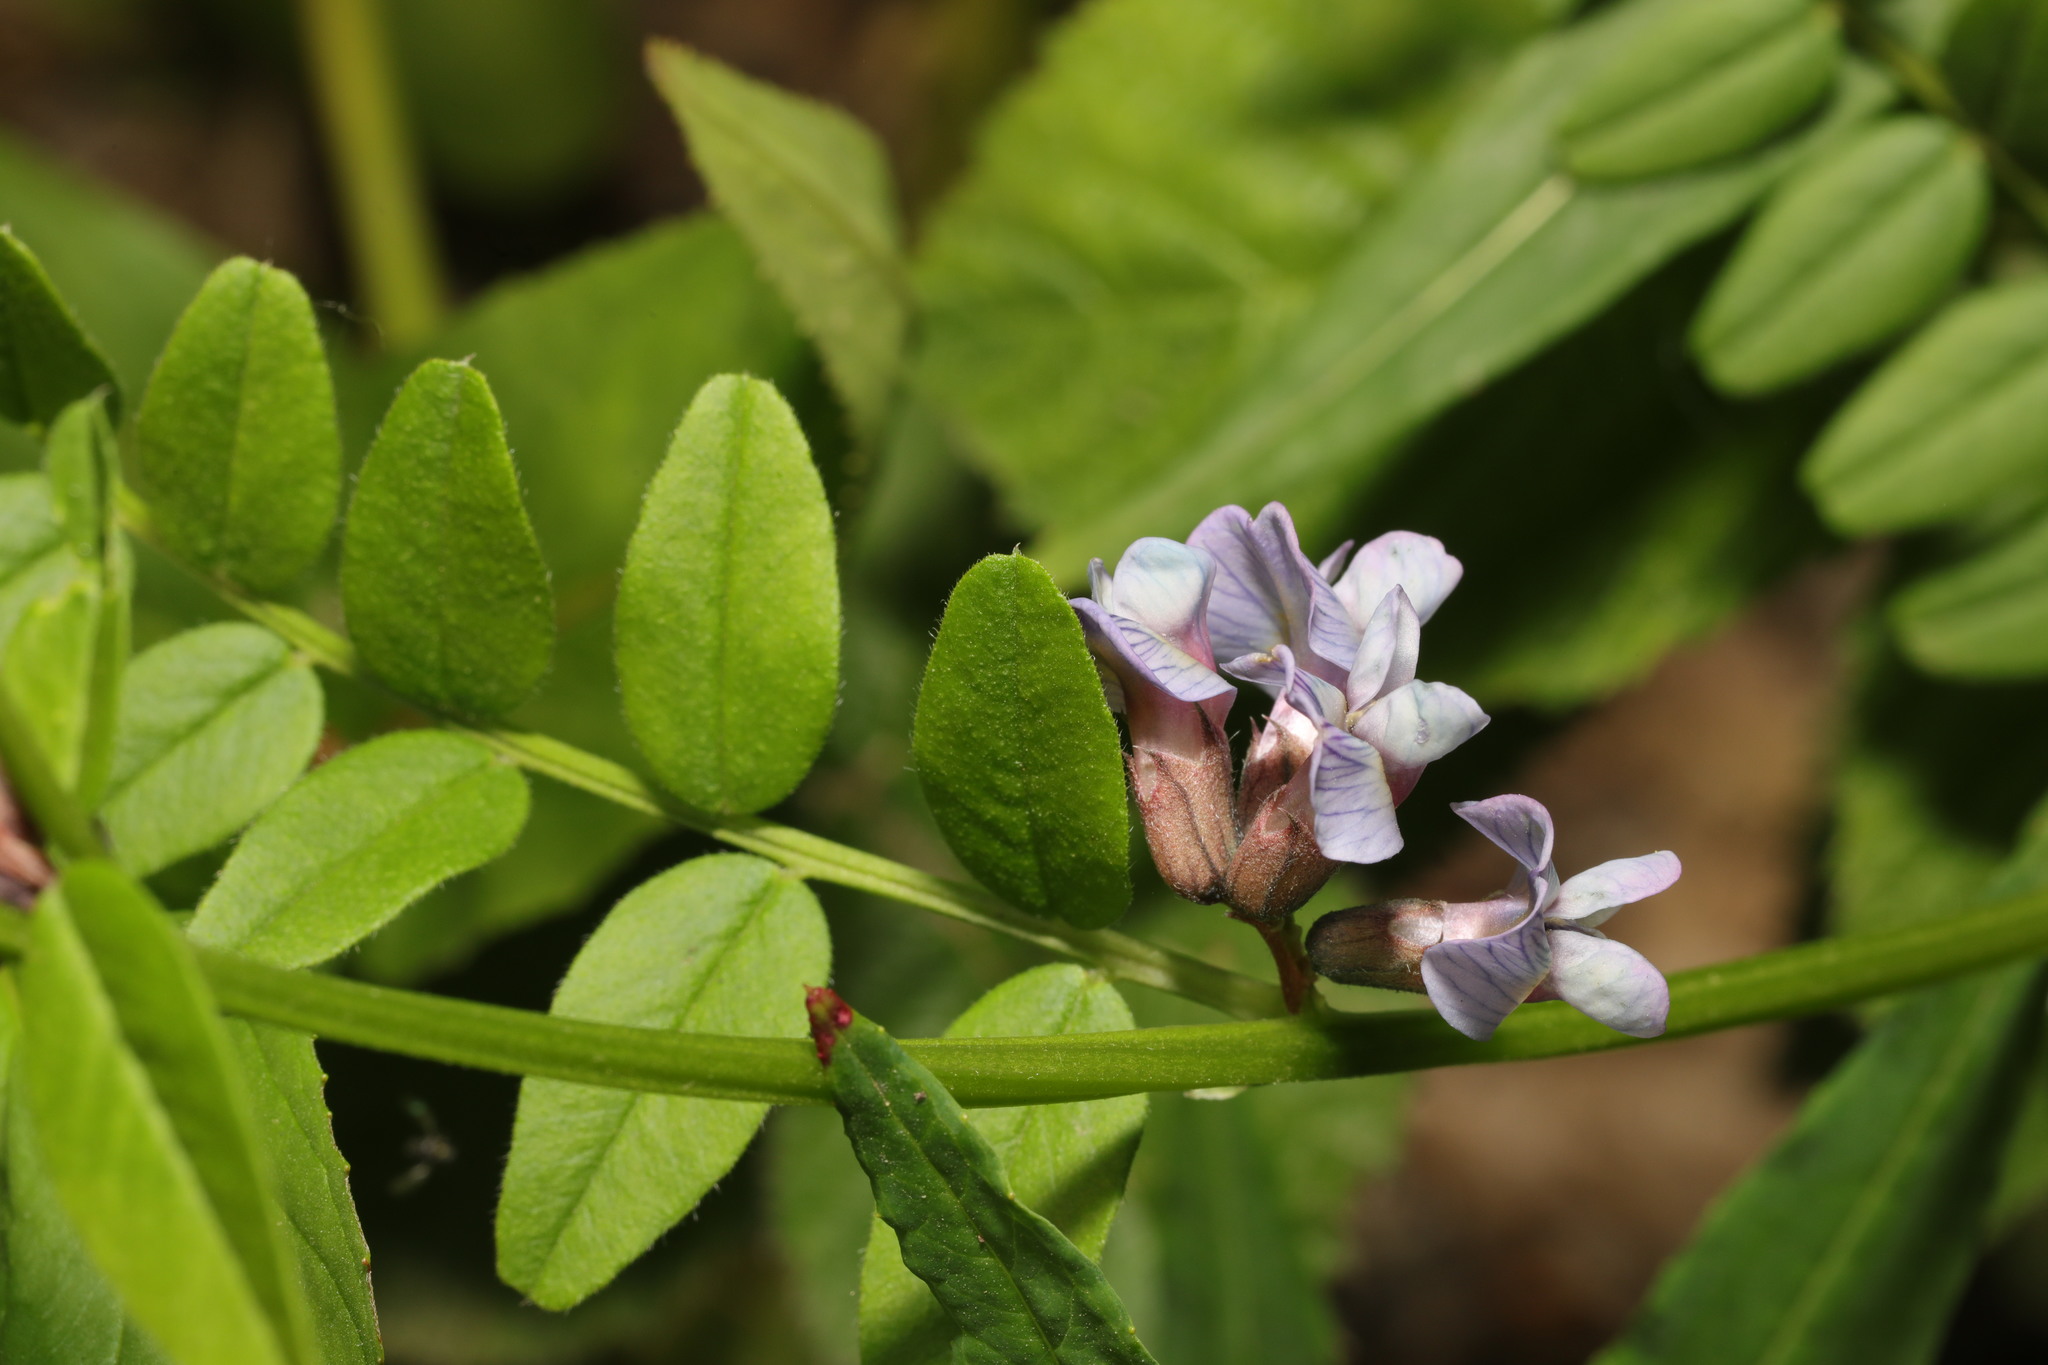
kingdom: Plantae
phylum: Tracheophyta
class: Magnoliopsida
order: Fabales
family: Fabaceae
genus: Vicia
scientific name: Vicia sepium
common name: Bush vetch
